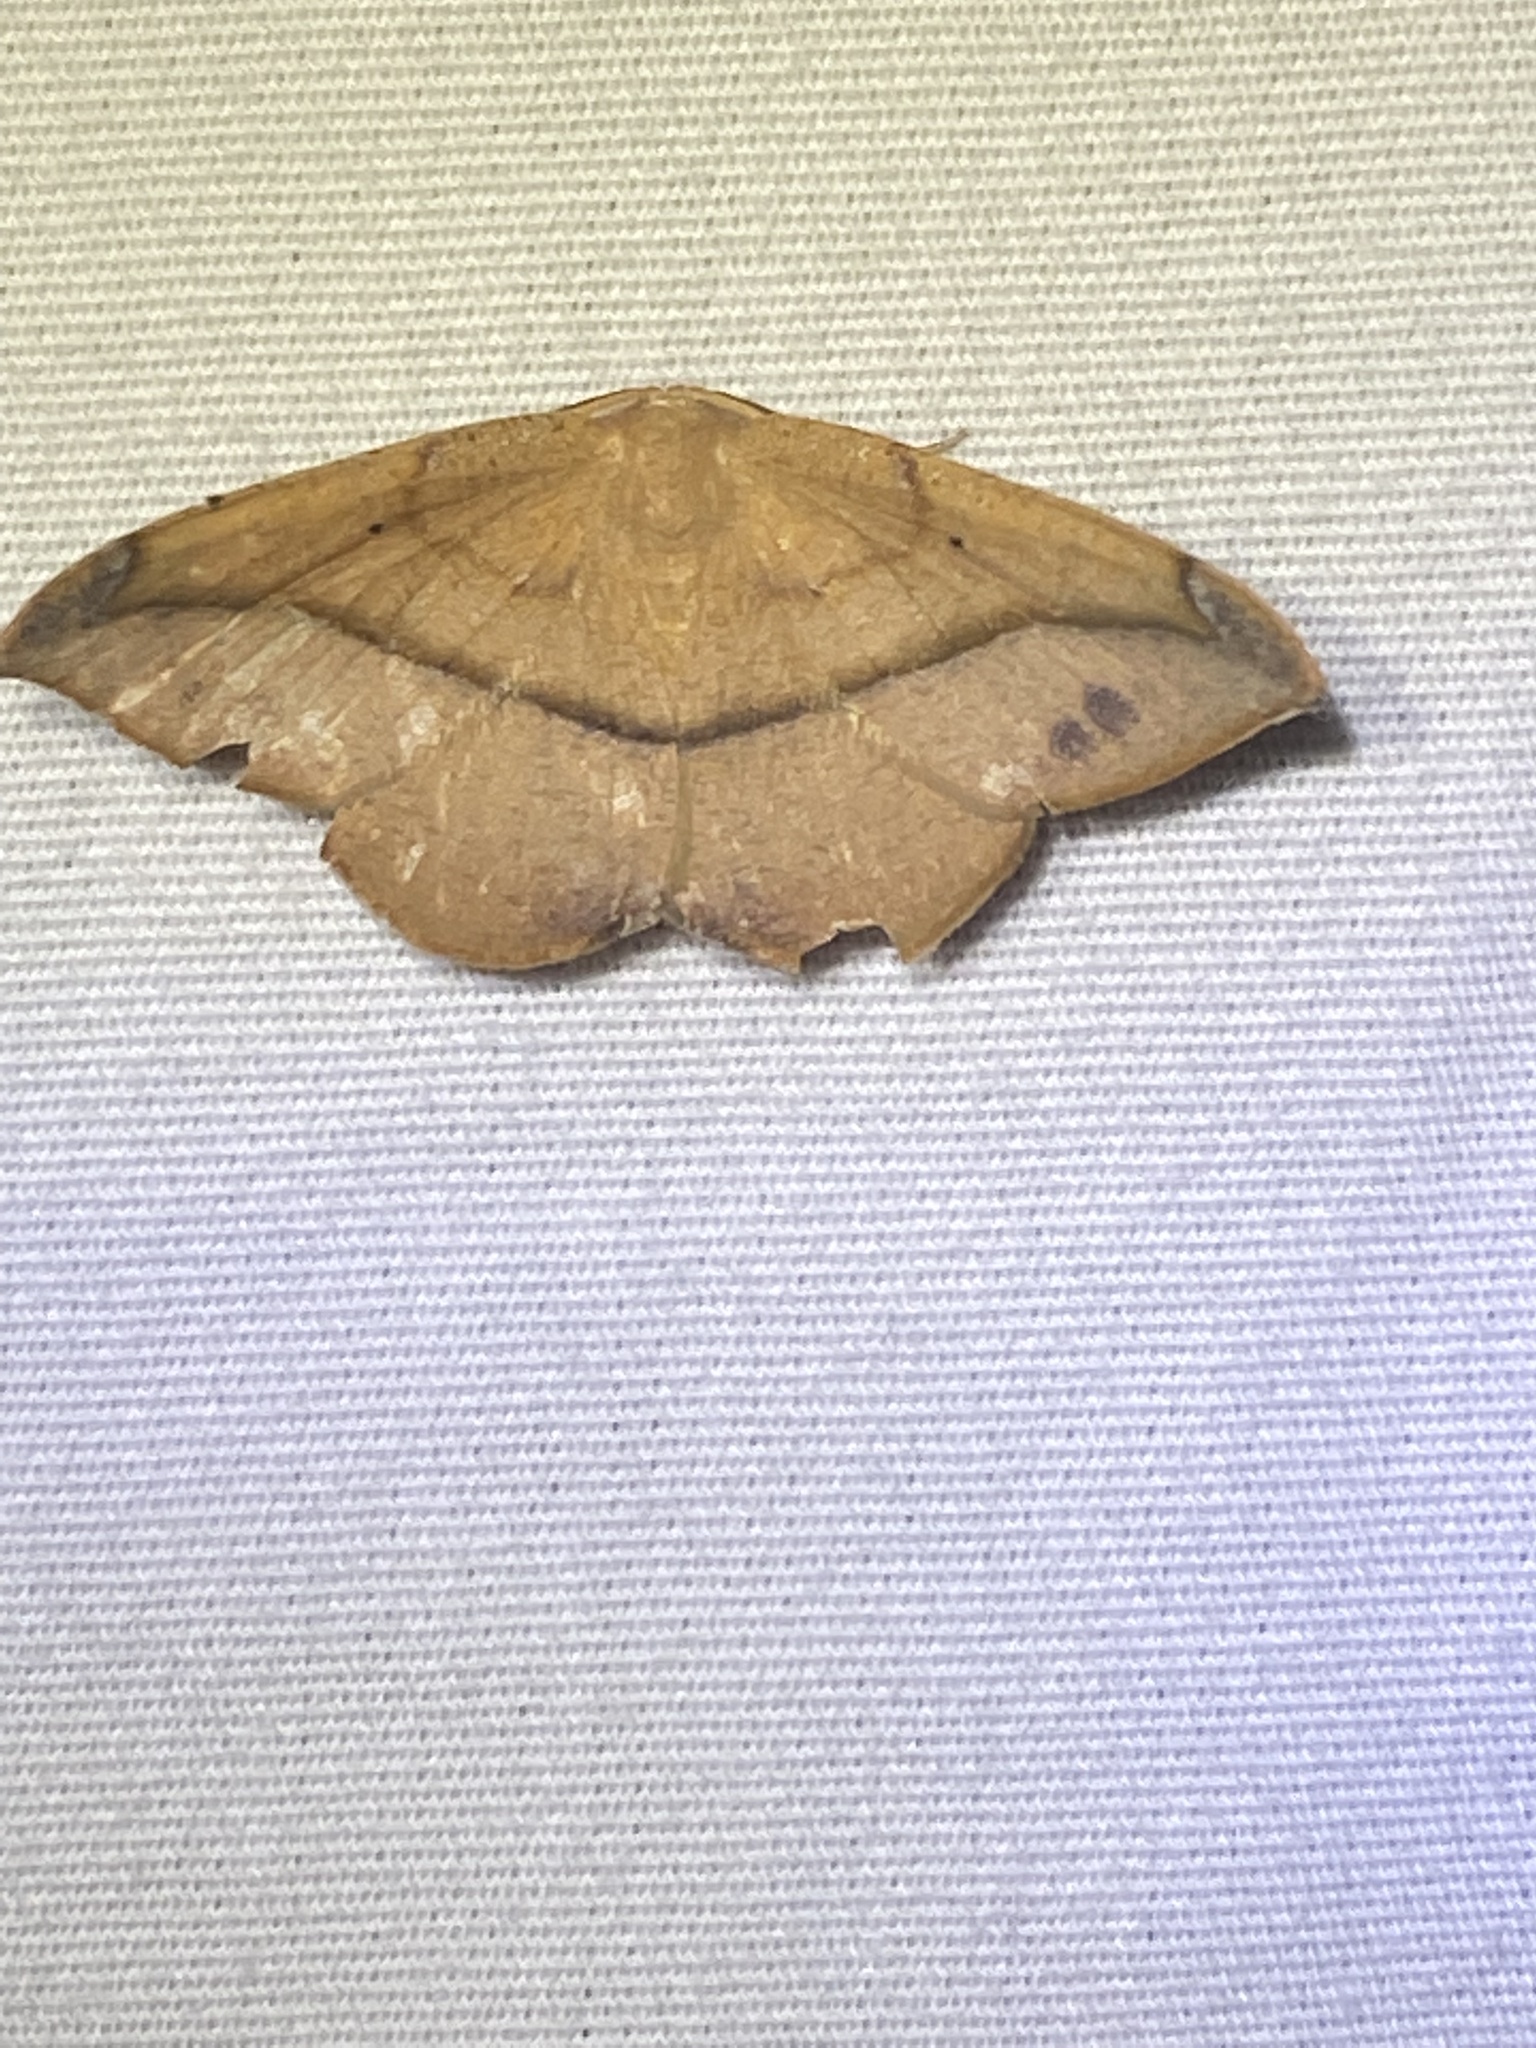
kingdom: Animalia
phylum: Arthropoda
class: Insecta
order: Lepidoptera
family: Geometridae
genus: Patalene
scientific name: Patalene olyzonaria
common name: Juniper geometer moth
